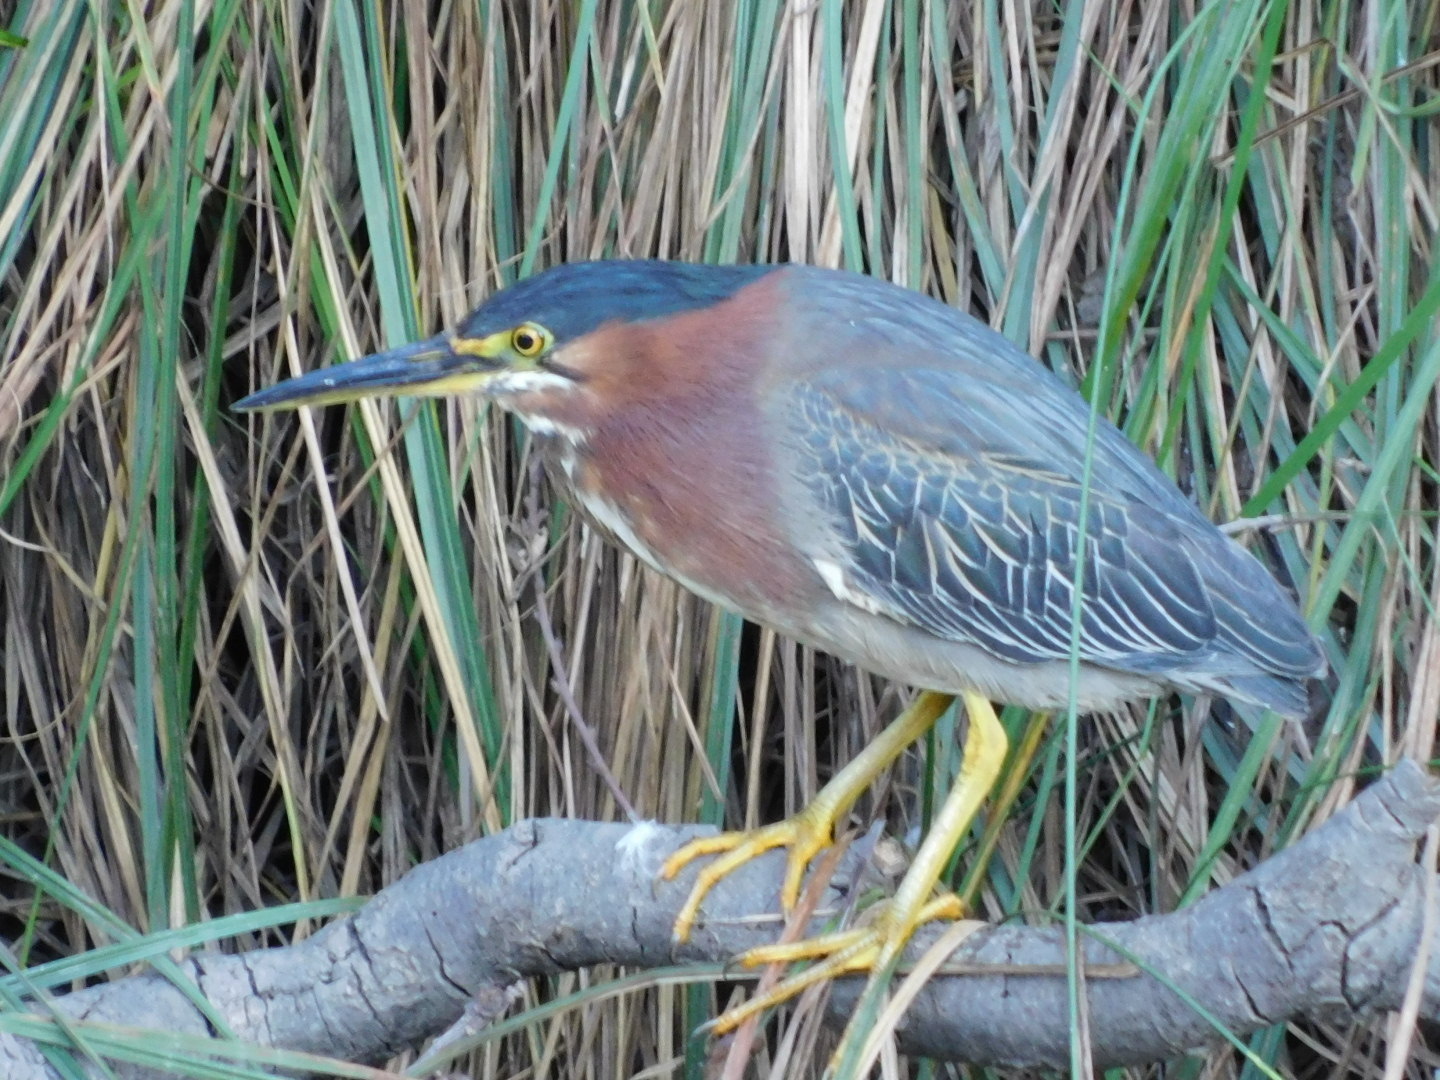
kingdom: Animalia
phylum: Chordata
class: Aves
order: Pelecaniformes
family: Ardeidae
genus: Butorides
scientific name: Butorides virescens
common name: Green heron
